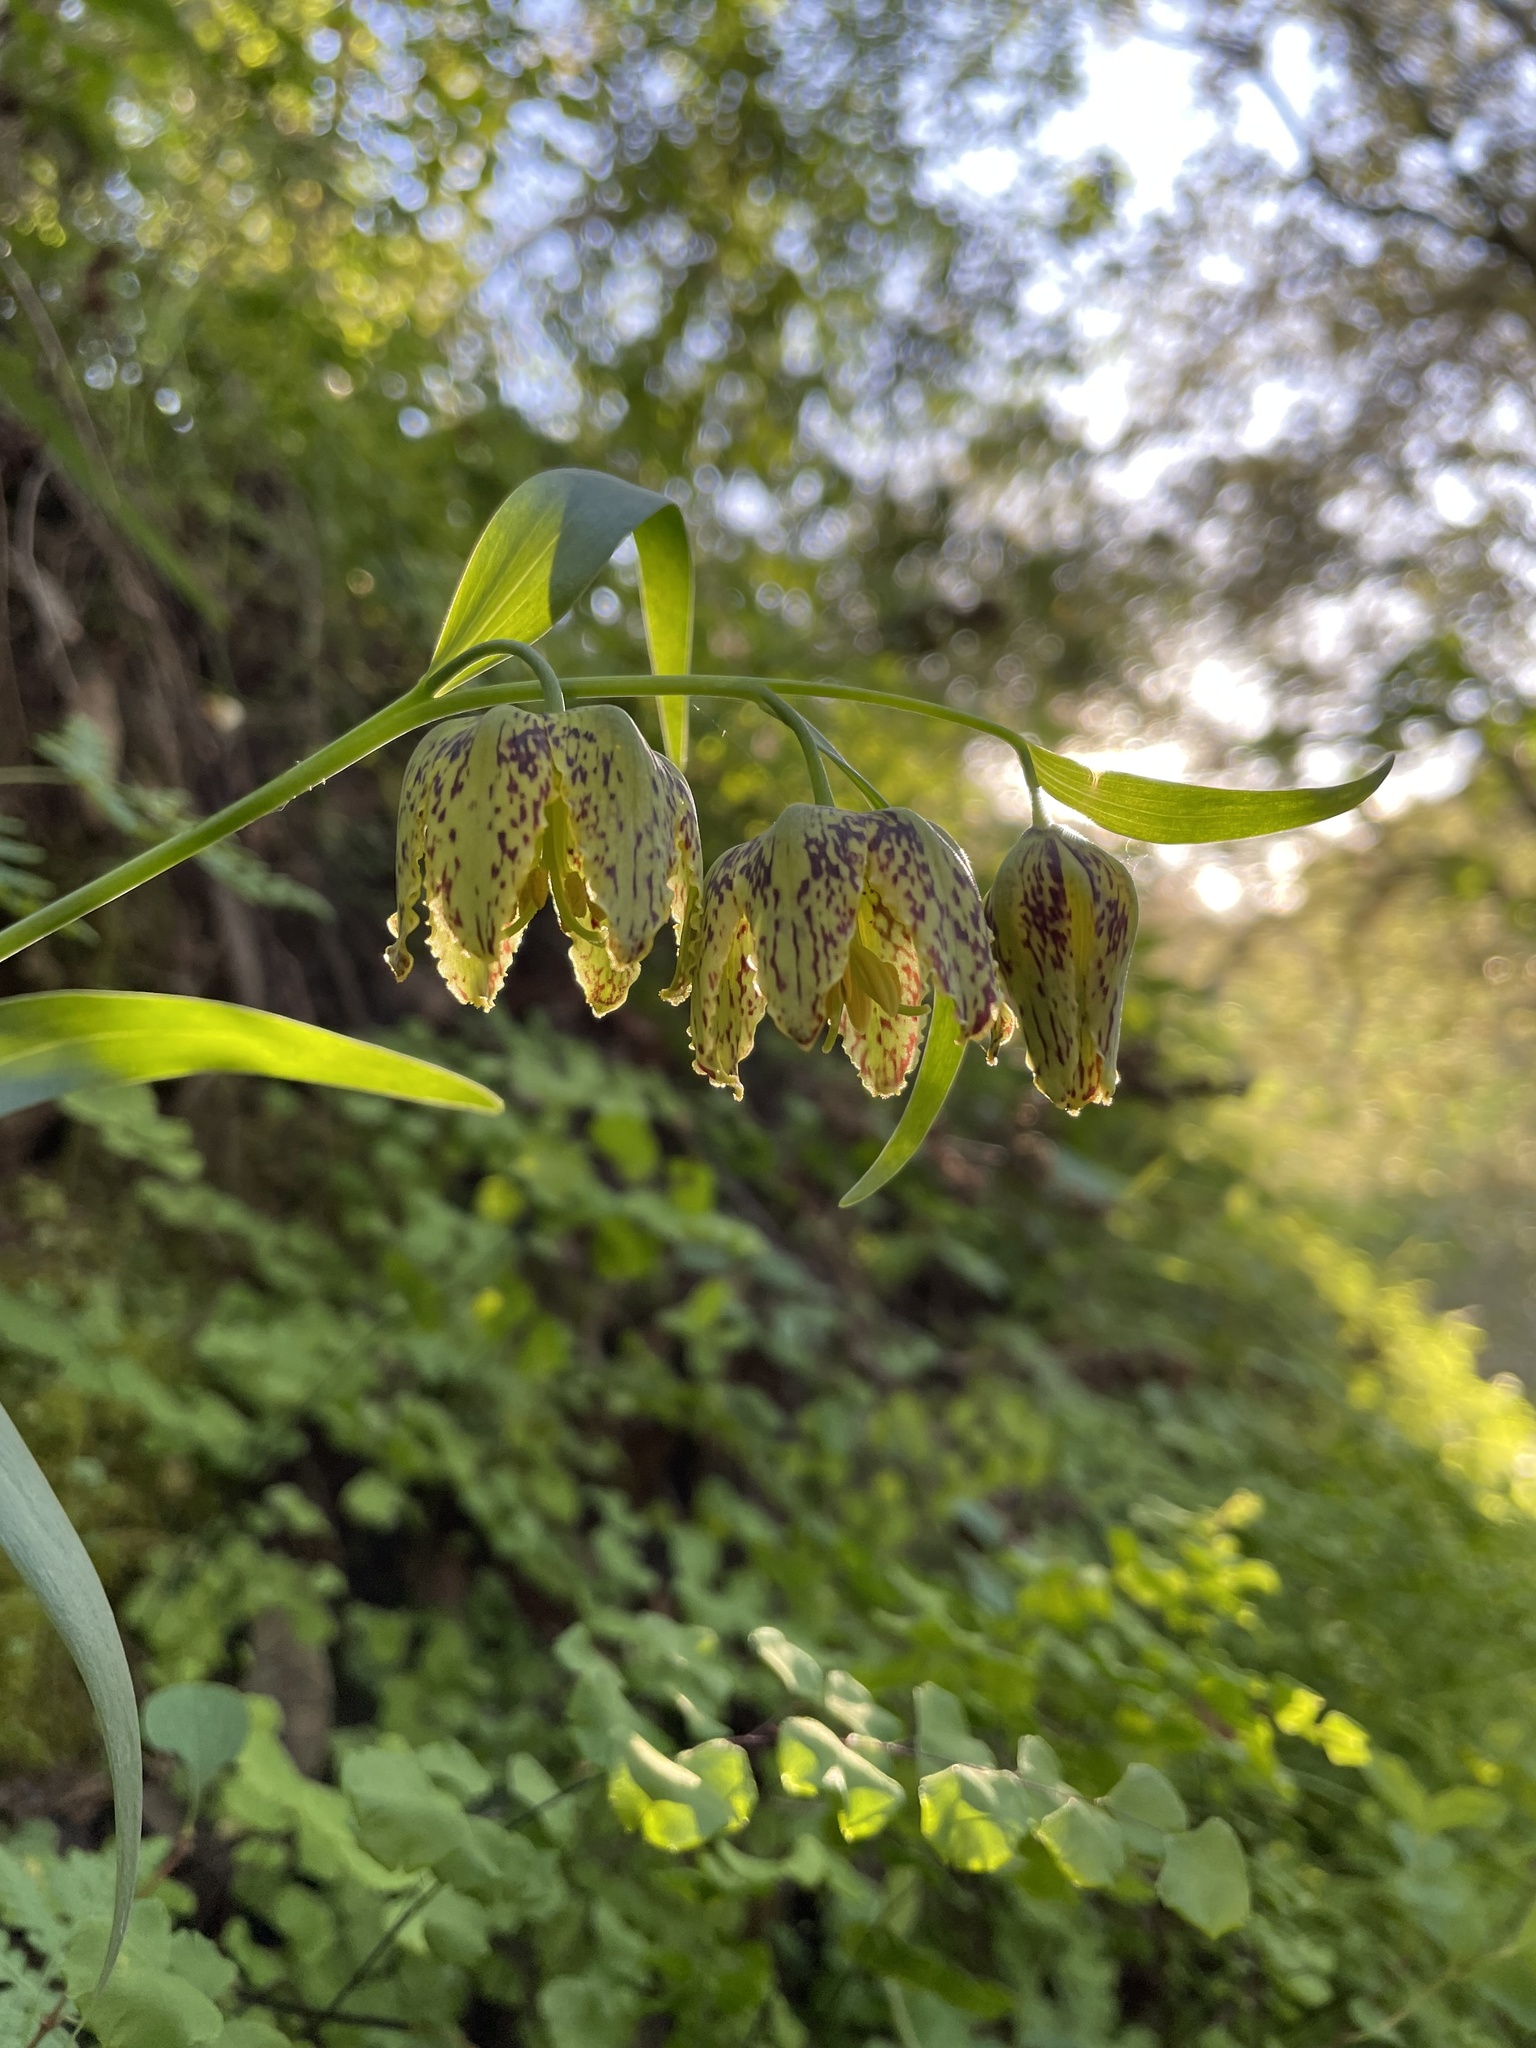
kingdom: Plantae
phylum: Tracheophyta
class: Liliopsida
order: Liliales
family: Liliaceae
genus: Fritillaria
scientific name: Fritillaria affinis
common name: Ojai fritillary
